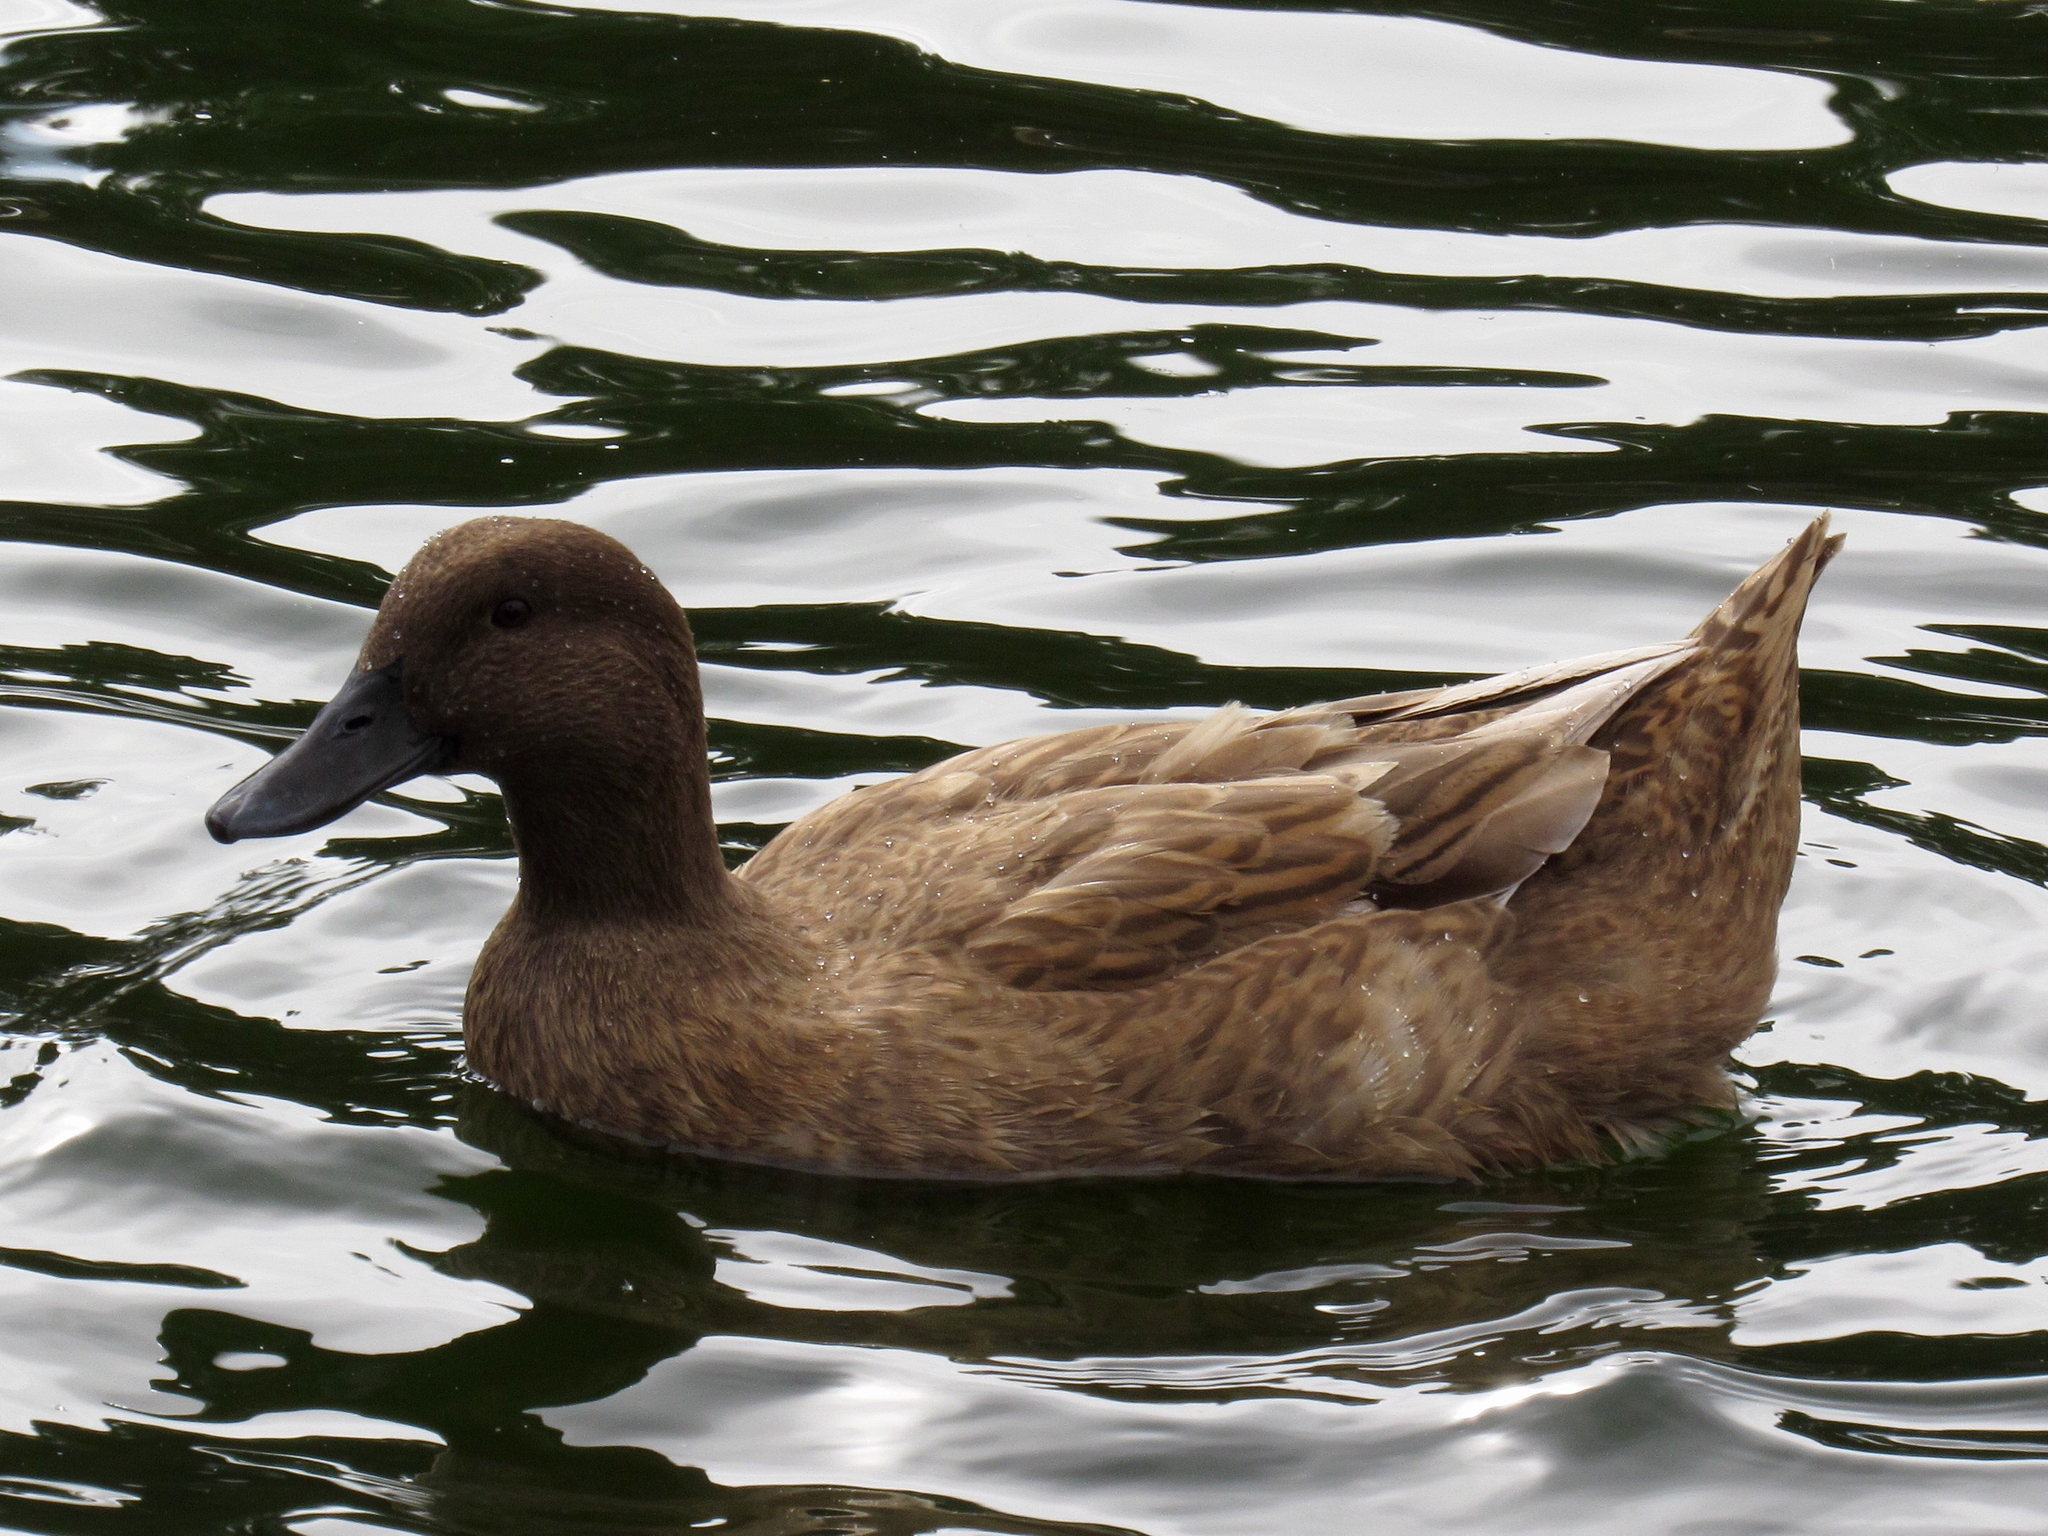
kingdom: Animalia
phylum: Chordata
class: Aves
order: Anseriformes
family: Anatidae
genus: Anas
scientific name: Anas platyrhynchos
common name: Mallard
